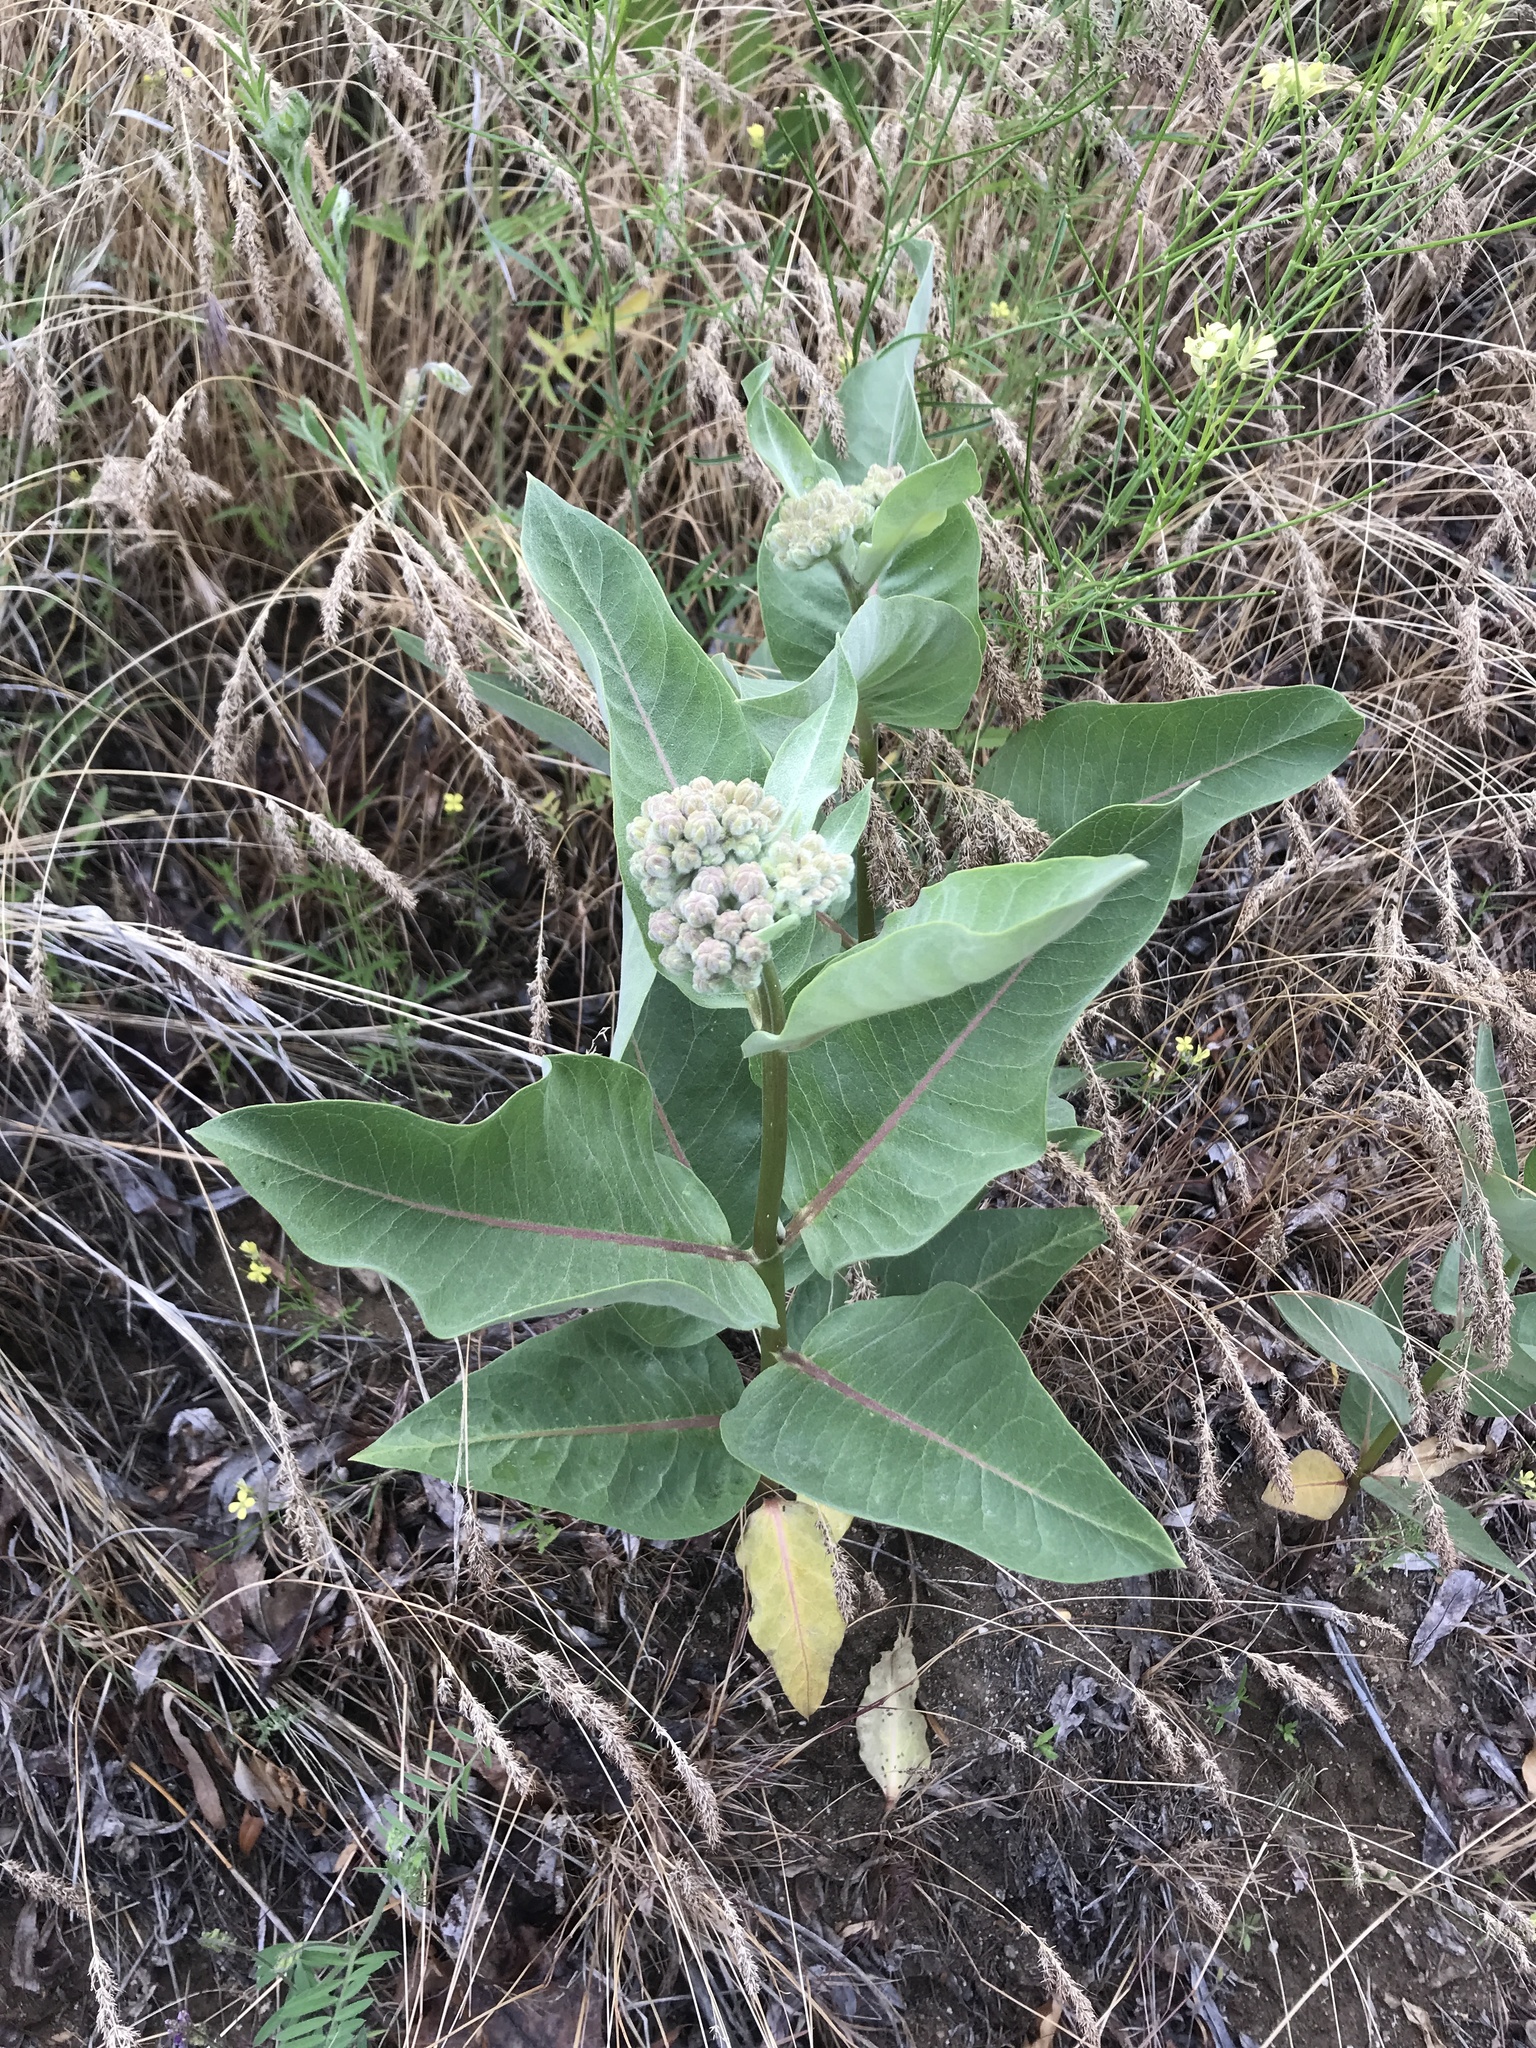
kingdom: Plantae
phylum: Tracheophyta
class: Magnoliopsida
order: Gentianales
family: Apocynaceae
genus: Asclepias
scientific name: Asclepias speciosa
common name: Showy milkweed
